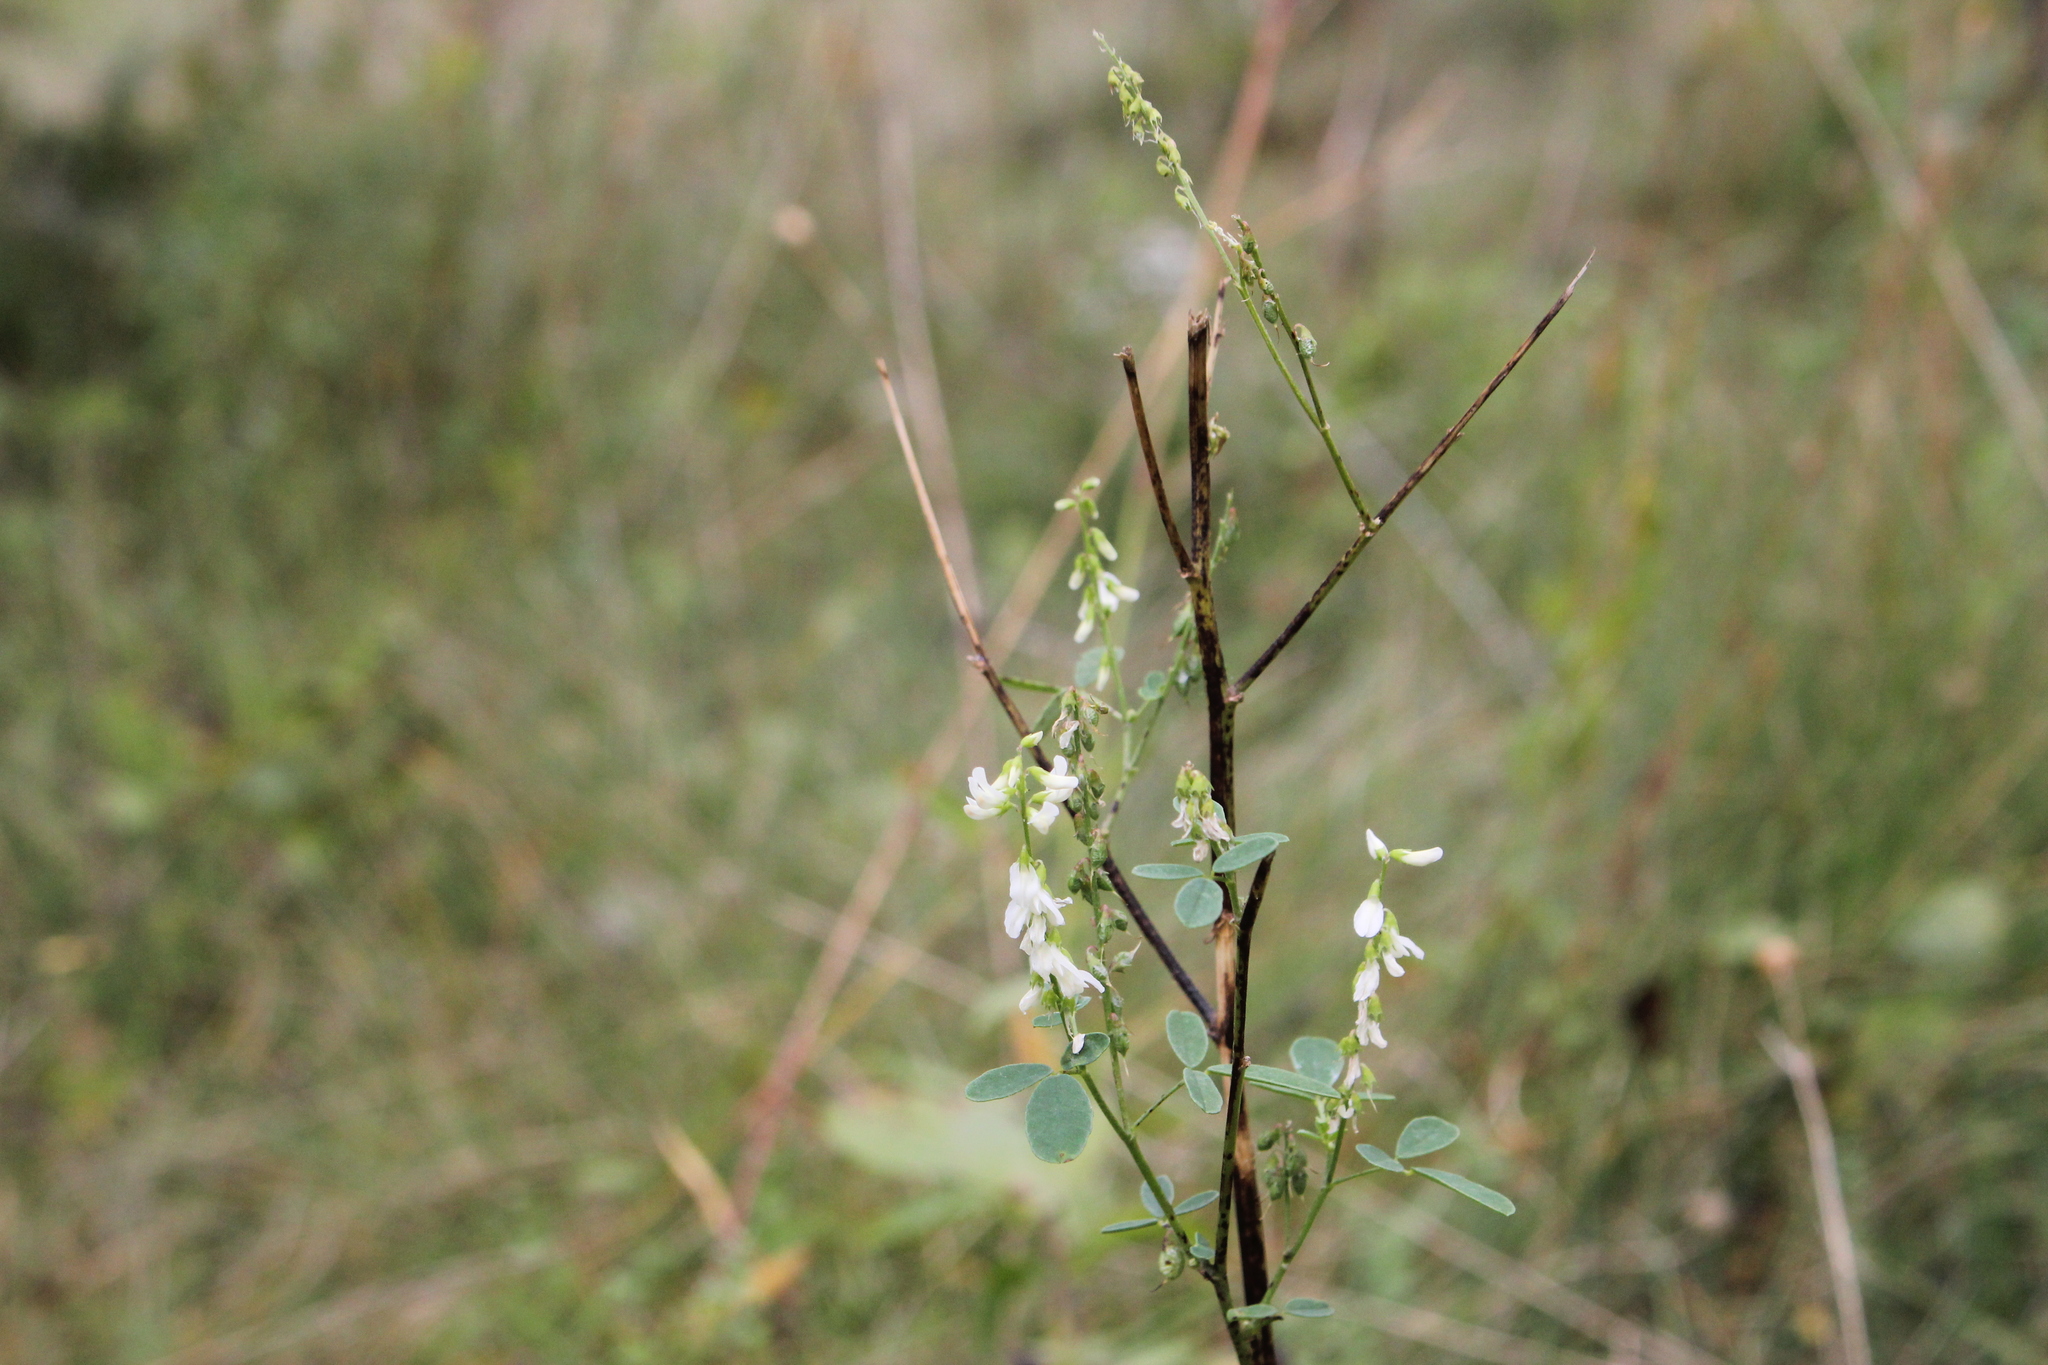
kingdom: Plantae
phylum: Tracheophyta
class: Magnoliopsida
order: Fabales
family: Fabaceae
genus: Melilotus
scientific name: Melilotus albus
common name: White melilot
